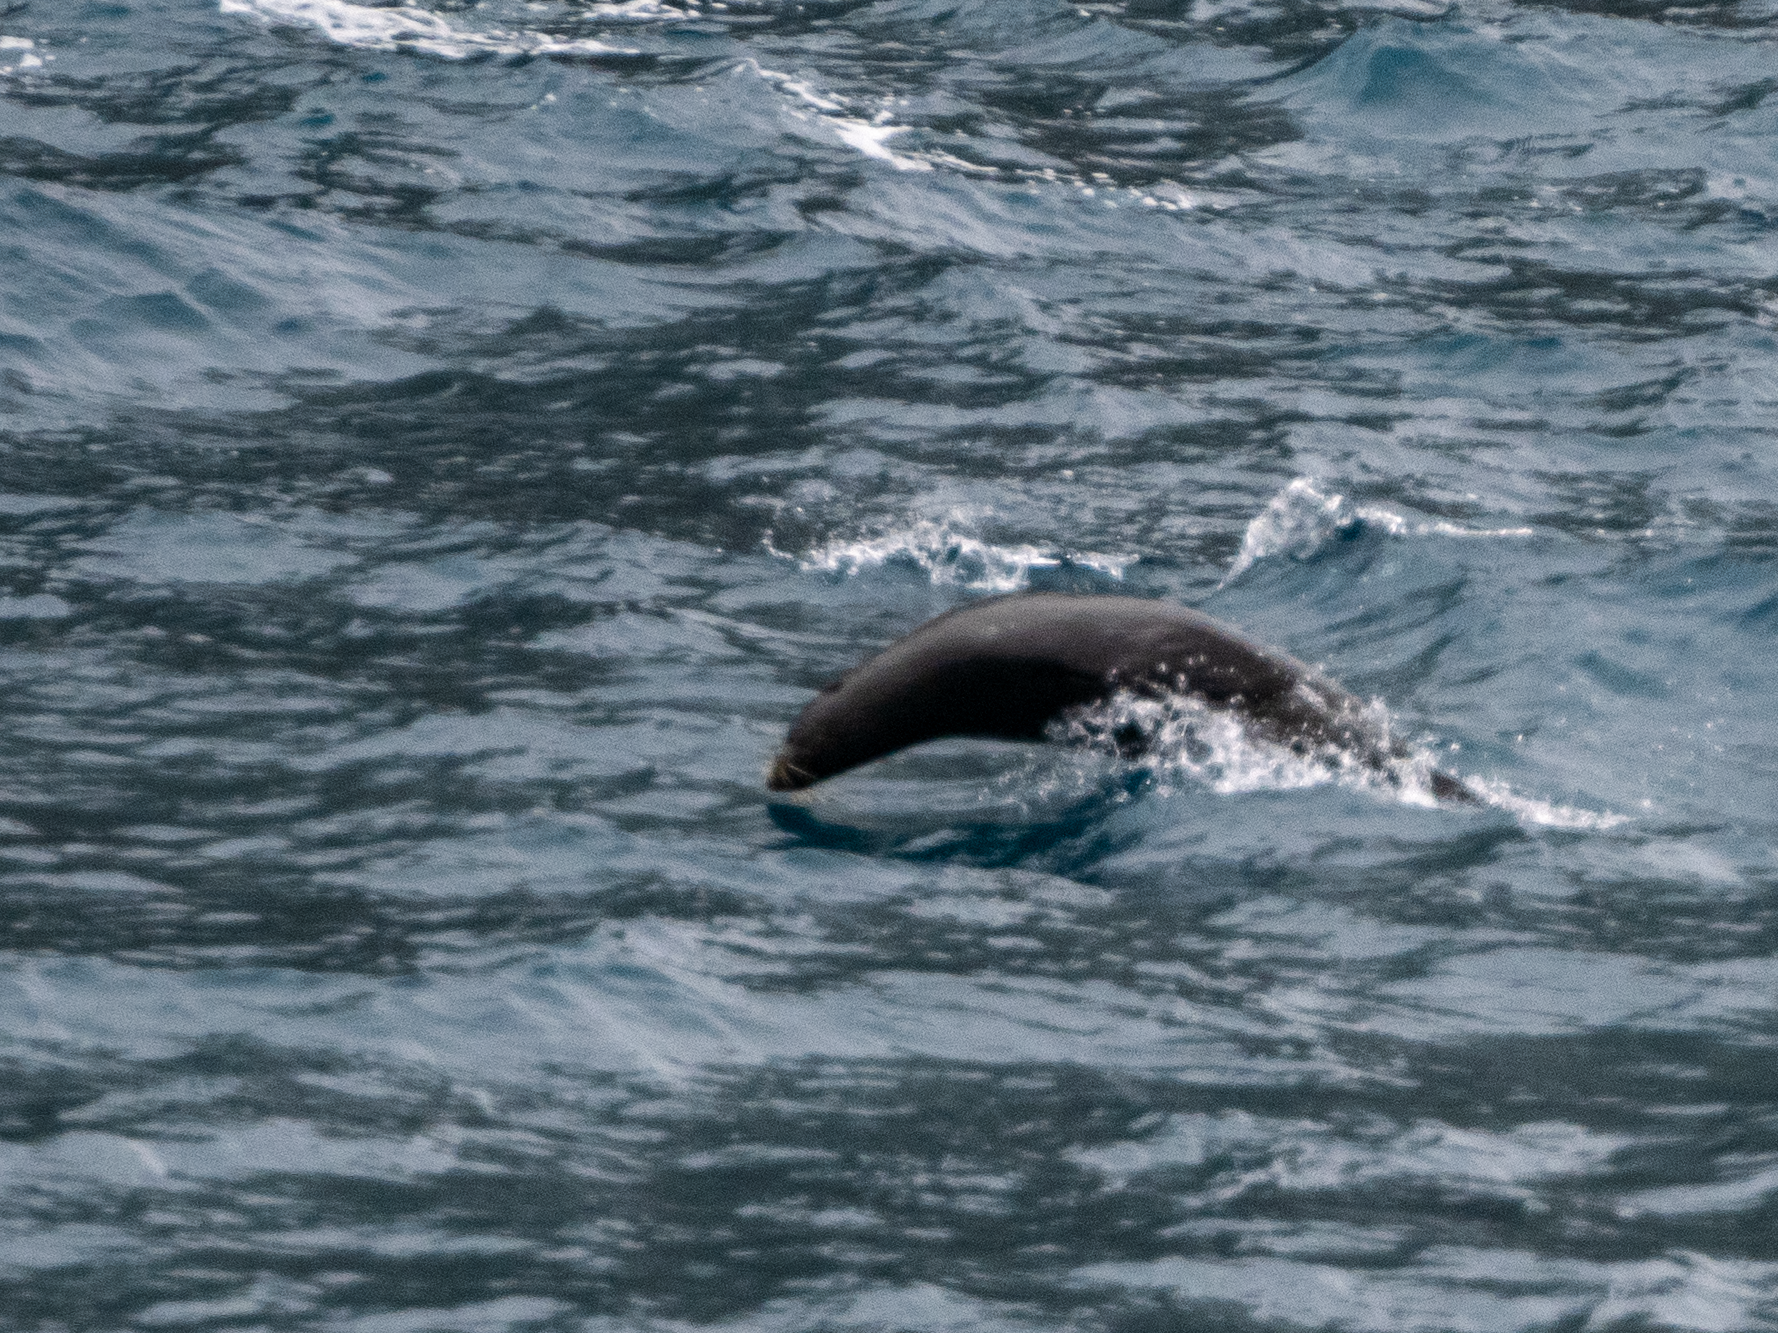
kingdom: Animalia
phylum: Chordata
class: Mammalia
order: Carnivora
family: Otariidae
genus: Arctocephalus
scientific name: Arctocephalus forsteri
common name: New zealand fur seal
